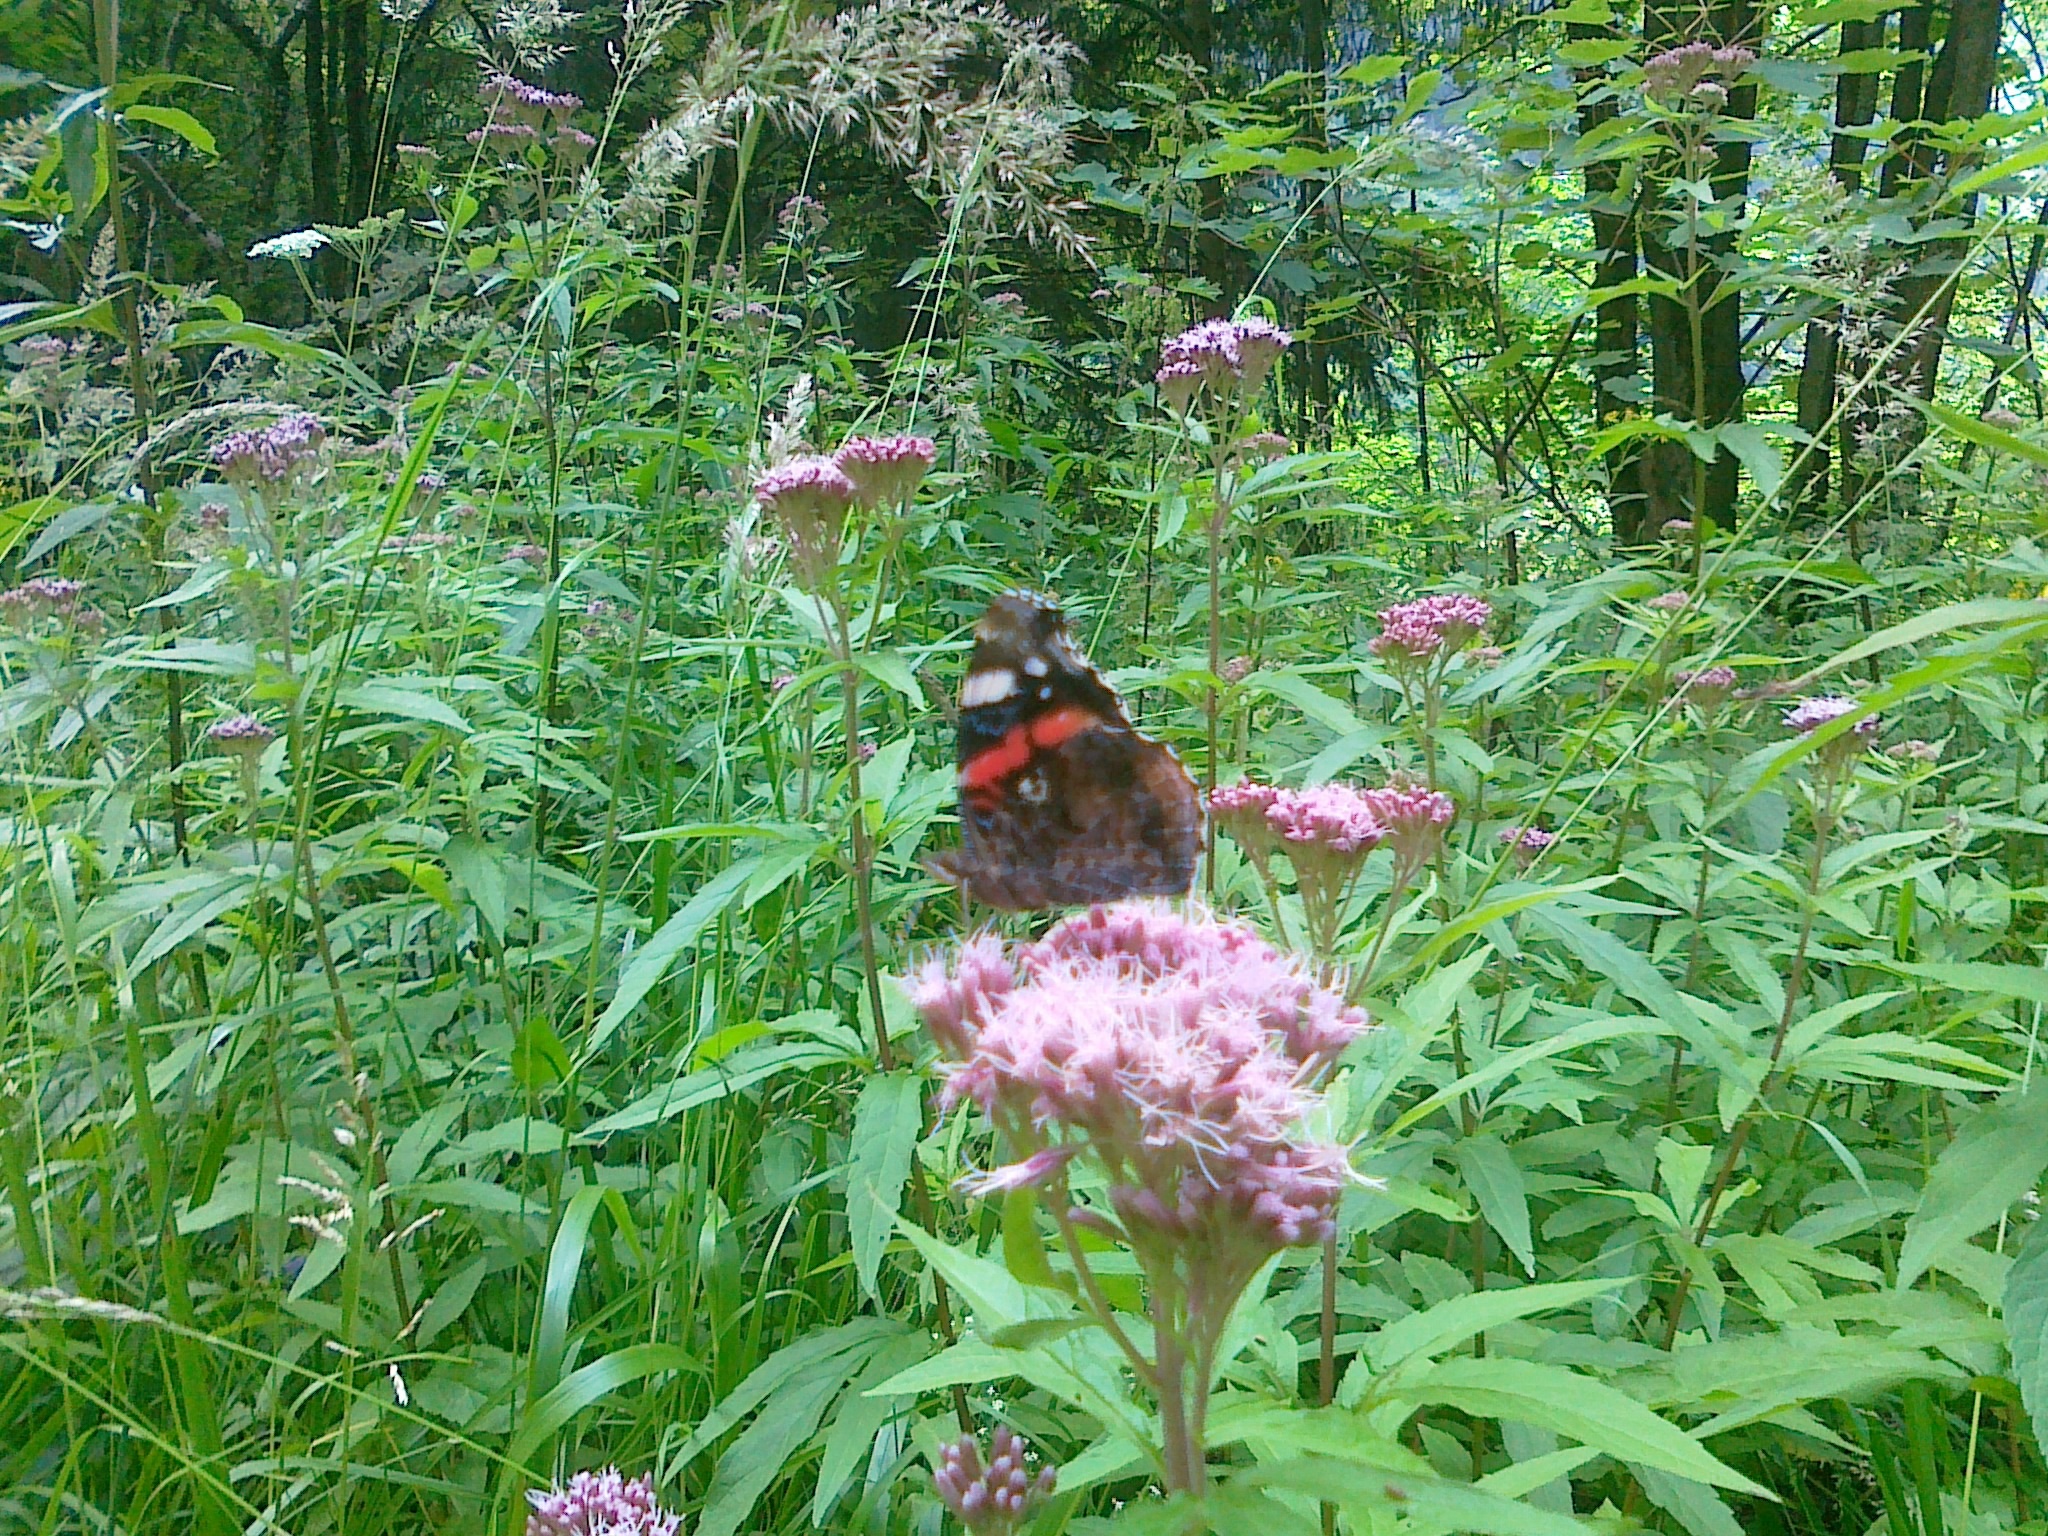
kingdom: Animalia
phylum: Arthropoda
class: Insecta
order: Lepidoptera
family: Nymphalidae
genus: Vanessa
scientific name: Vanessa atalanta
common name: Red admiral
